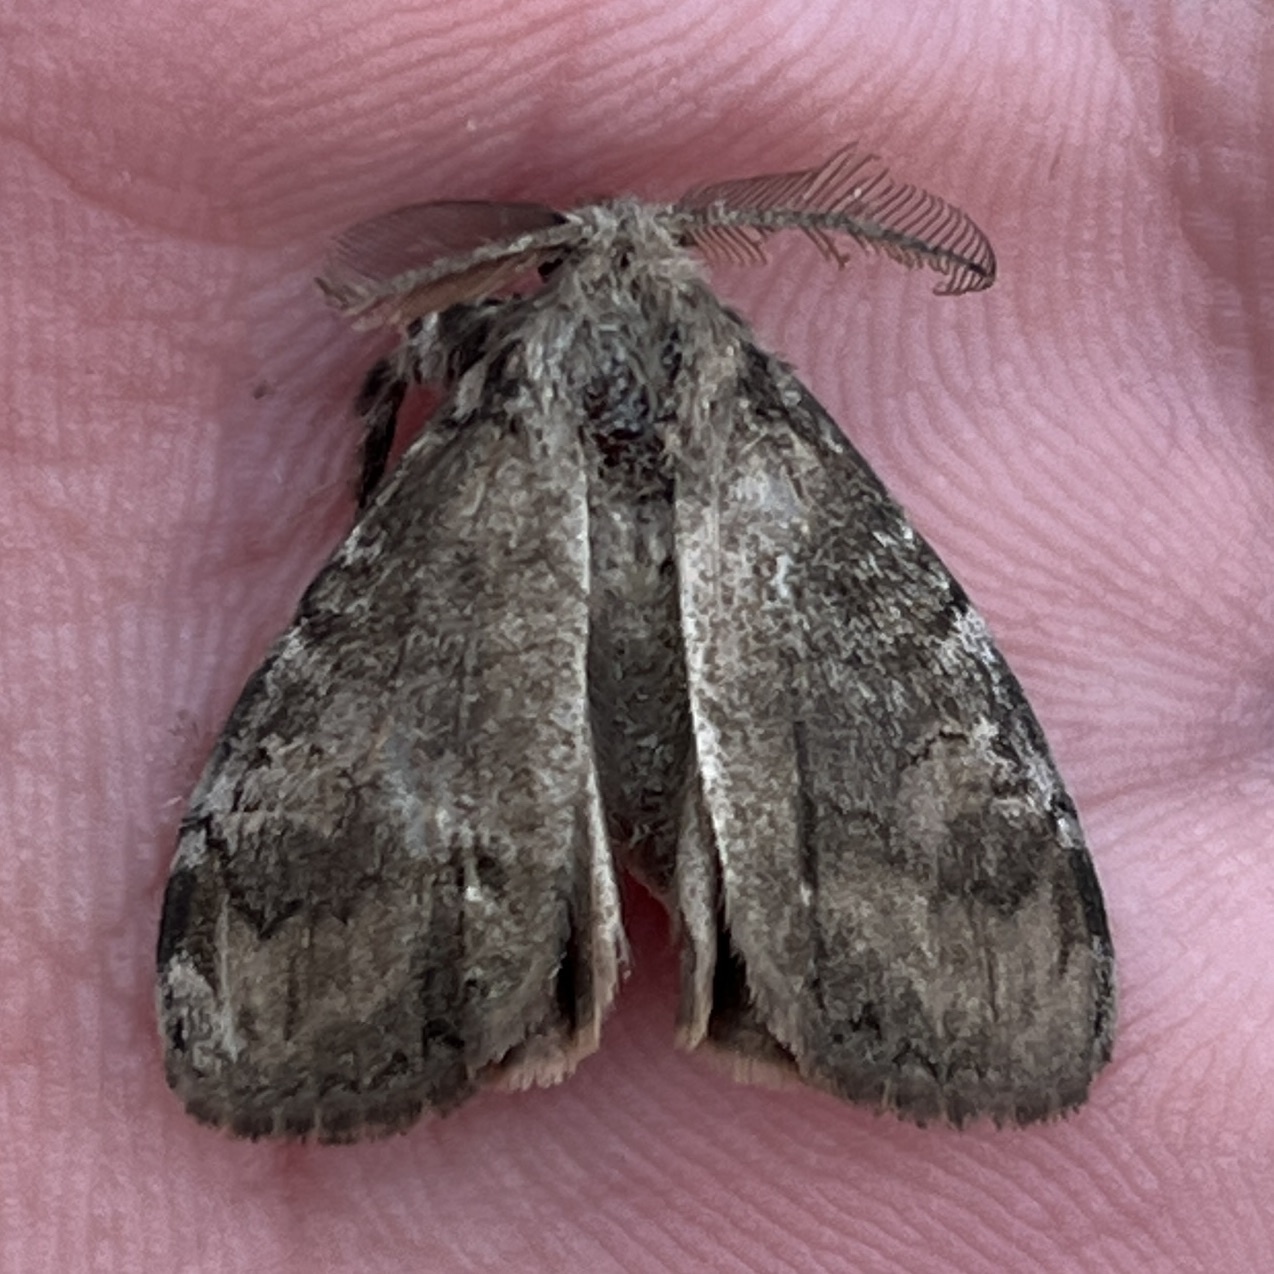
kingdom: Animalia
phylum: Arthropoda
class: Insecta
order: Lepidoptera
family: Erebidae
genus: Orgyia
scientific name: Orgyia leucostigma
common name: White-marked tussock moth
